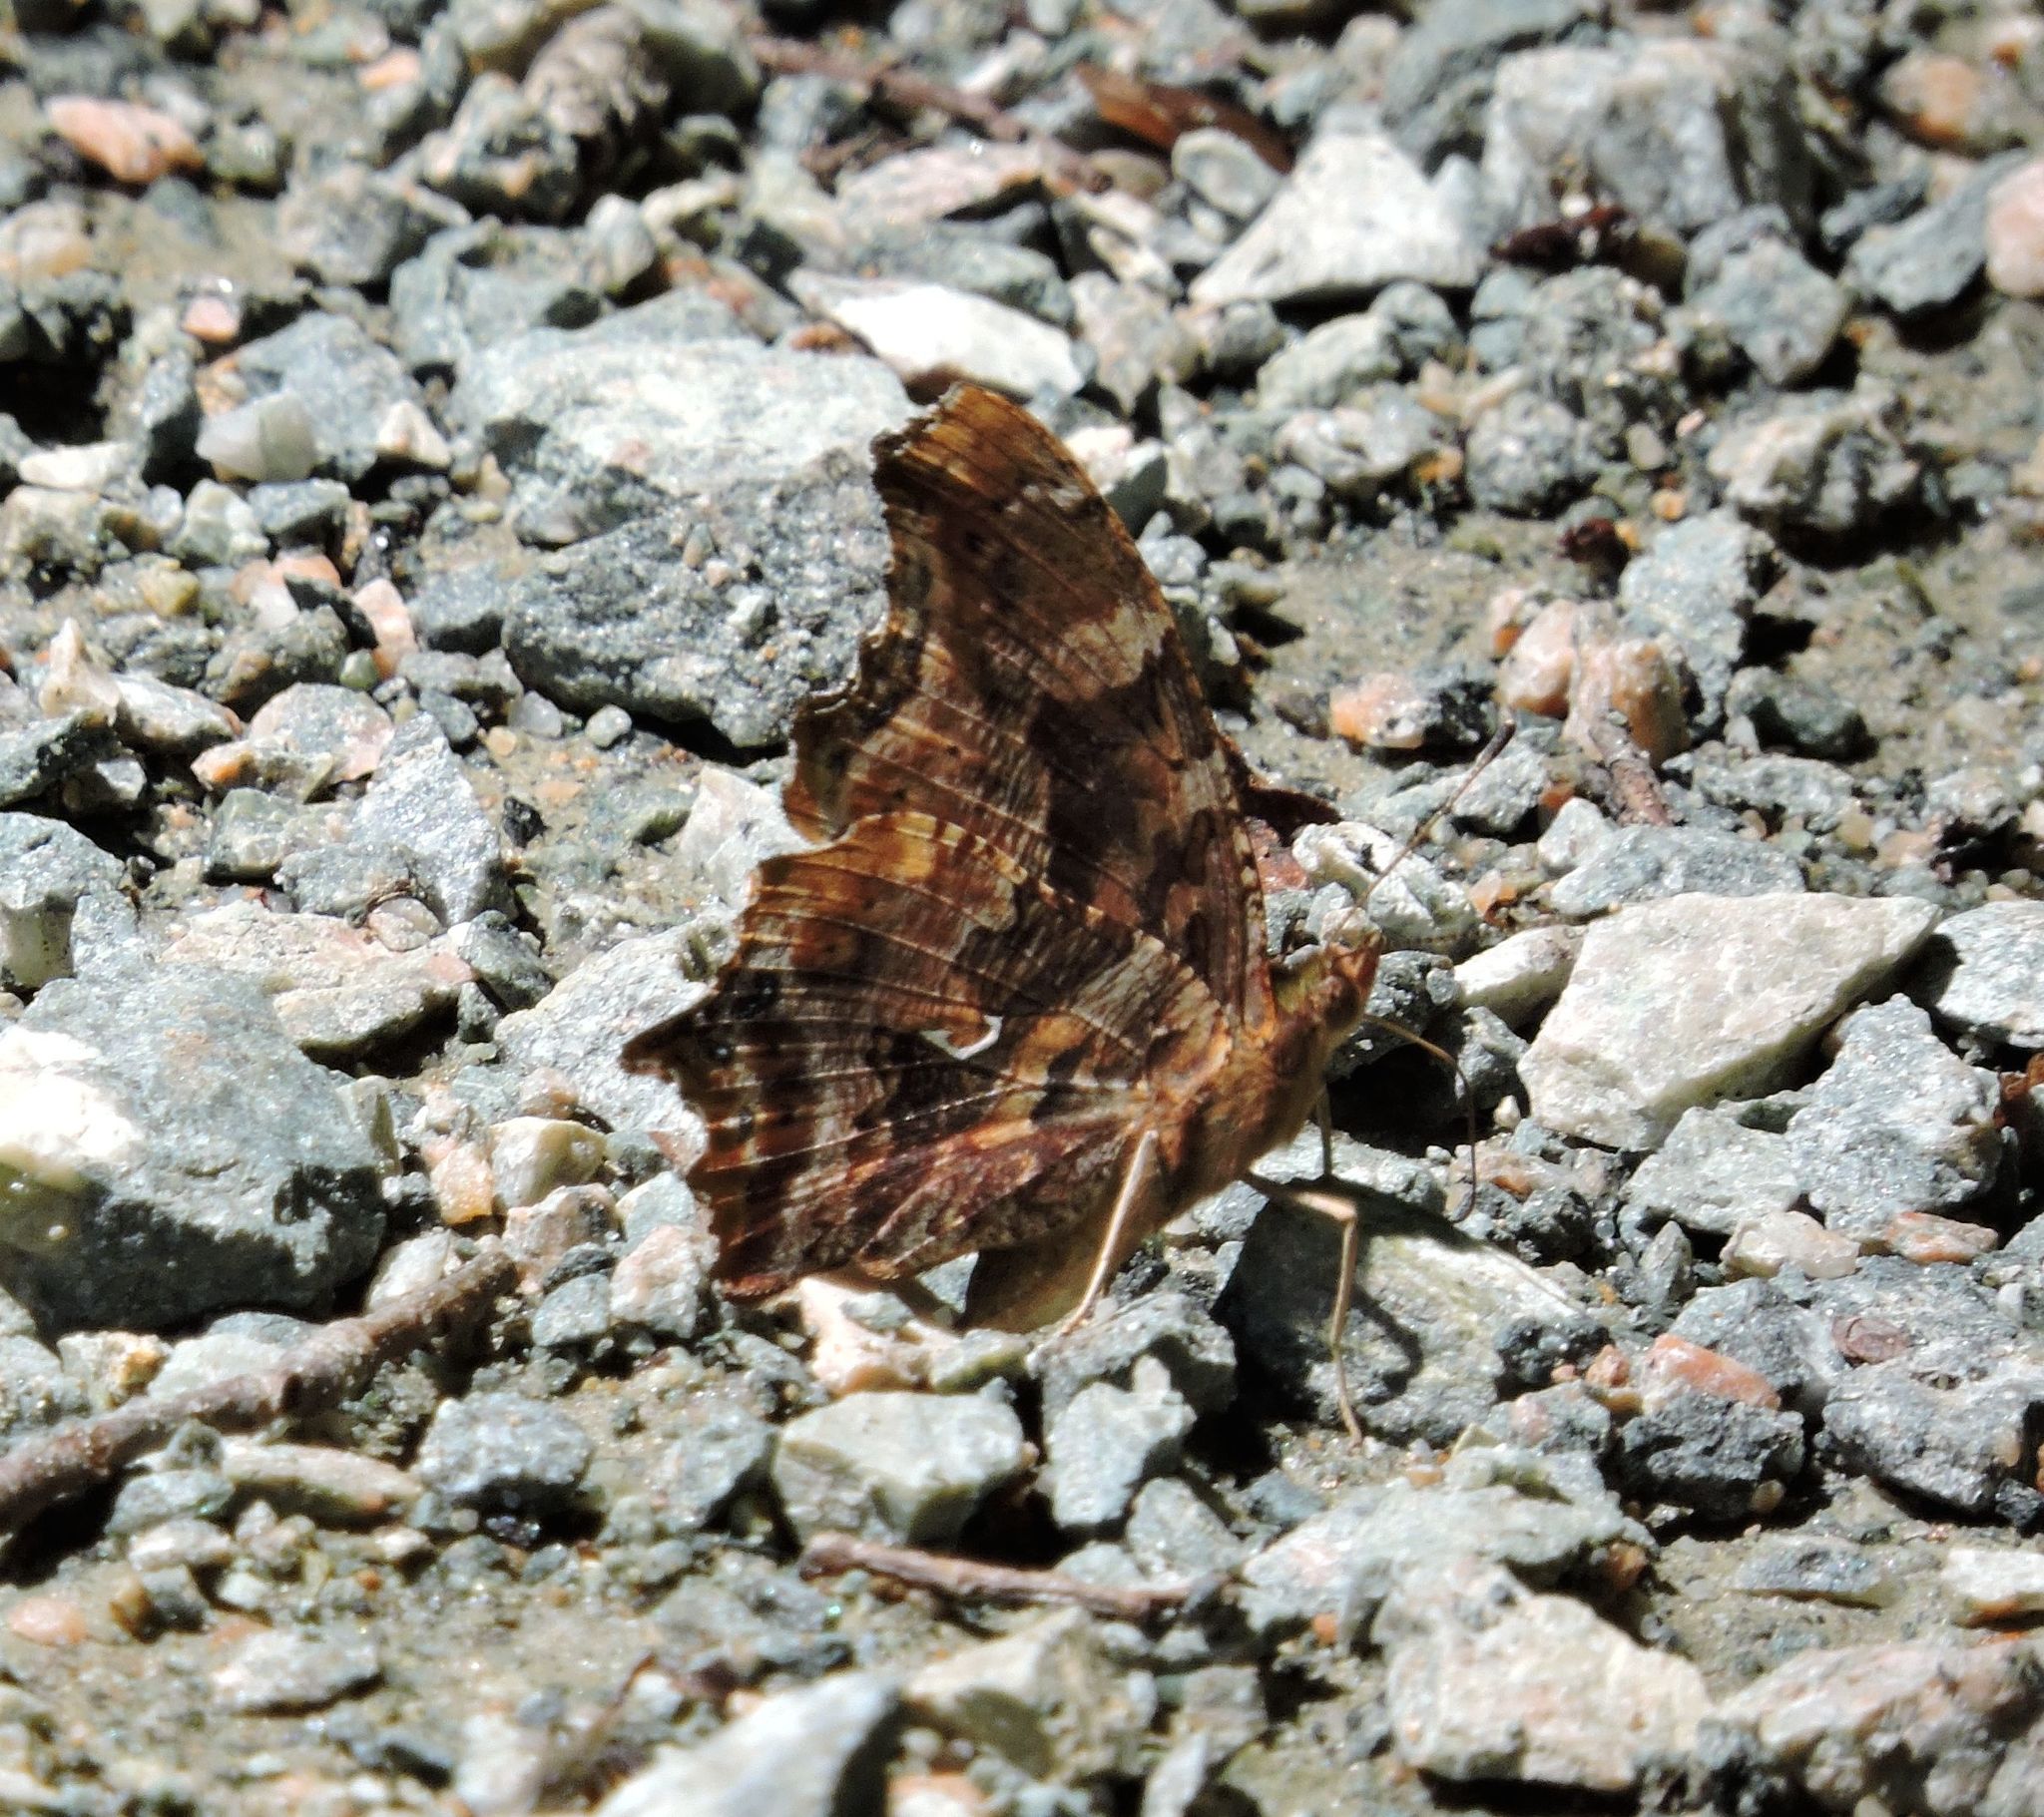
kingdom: Animalia
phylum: Arthropoda
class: Insecta
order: Lepidoptera
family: Nymphalidae
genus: Polygonia
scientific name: Polygonia comma
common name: Eastern comma
